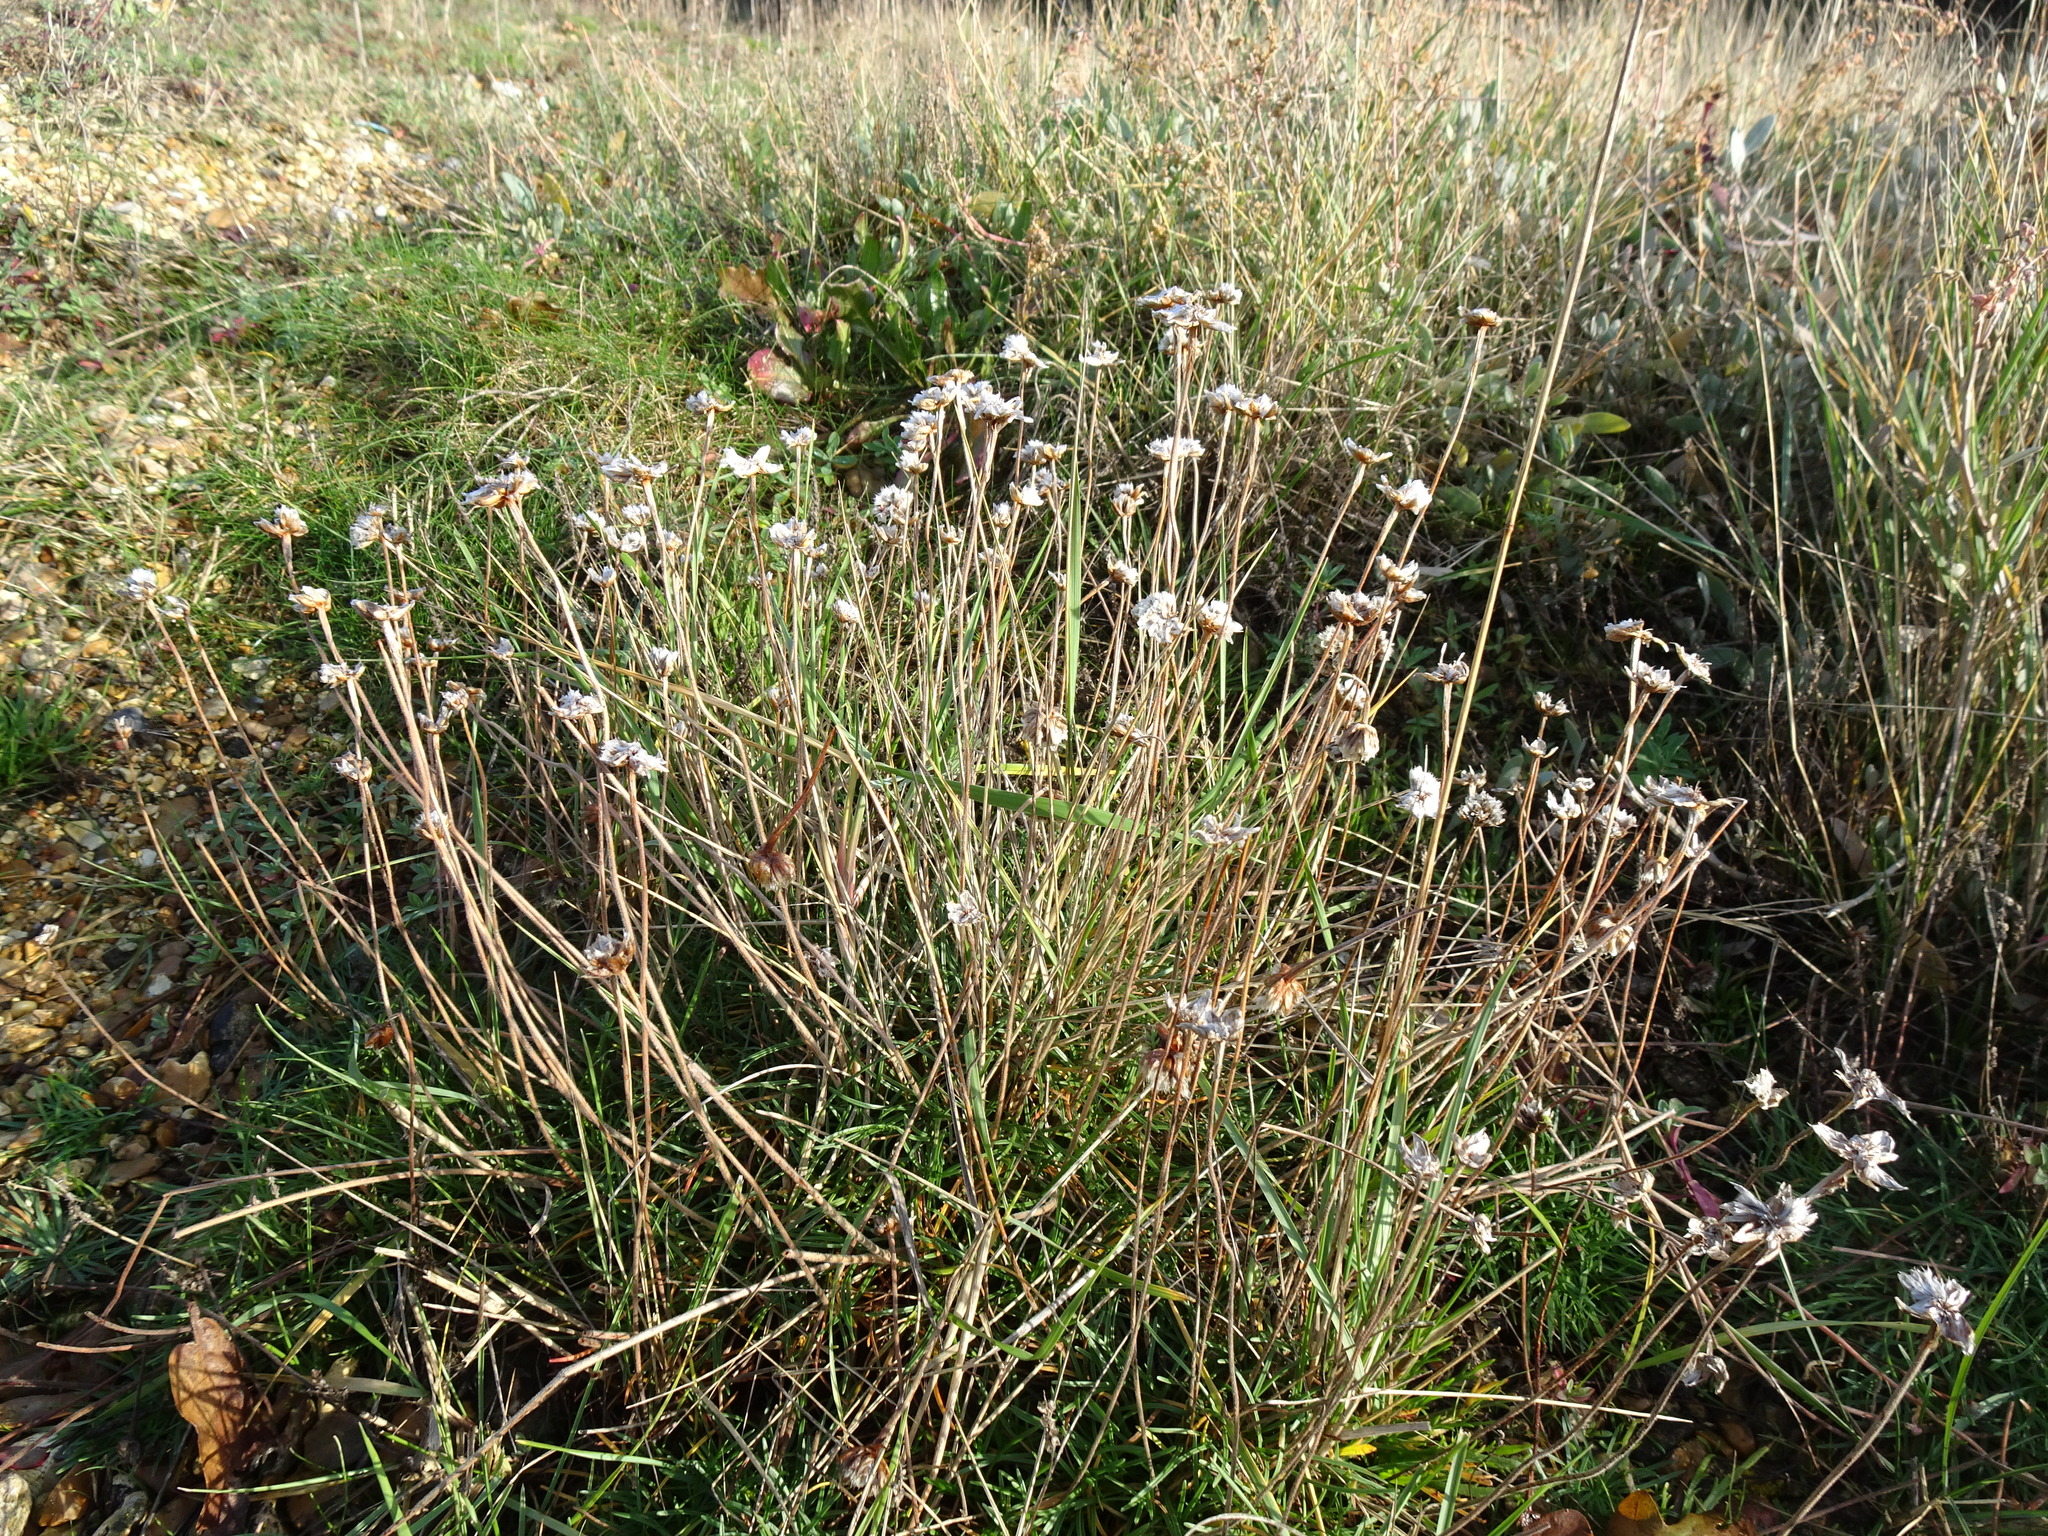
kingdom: Plantae
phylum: Tracheophyta
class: Magnoliopsida
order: Caryophyllales
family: Plumbaginaceae
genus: Armeria
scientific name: Armeria maritima
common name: Thrift
